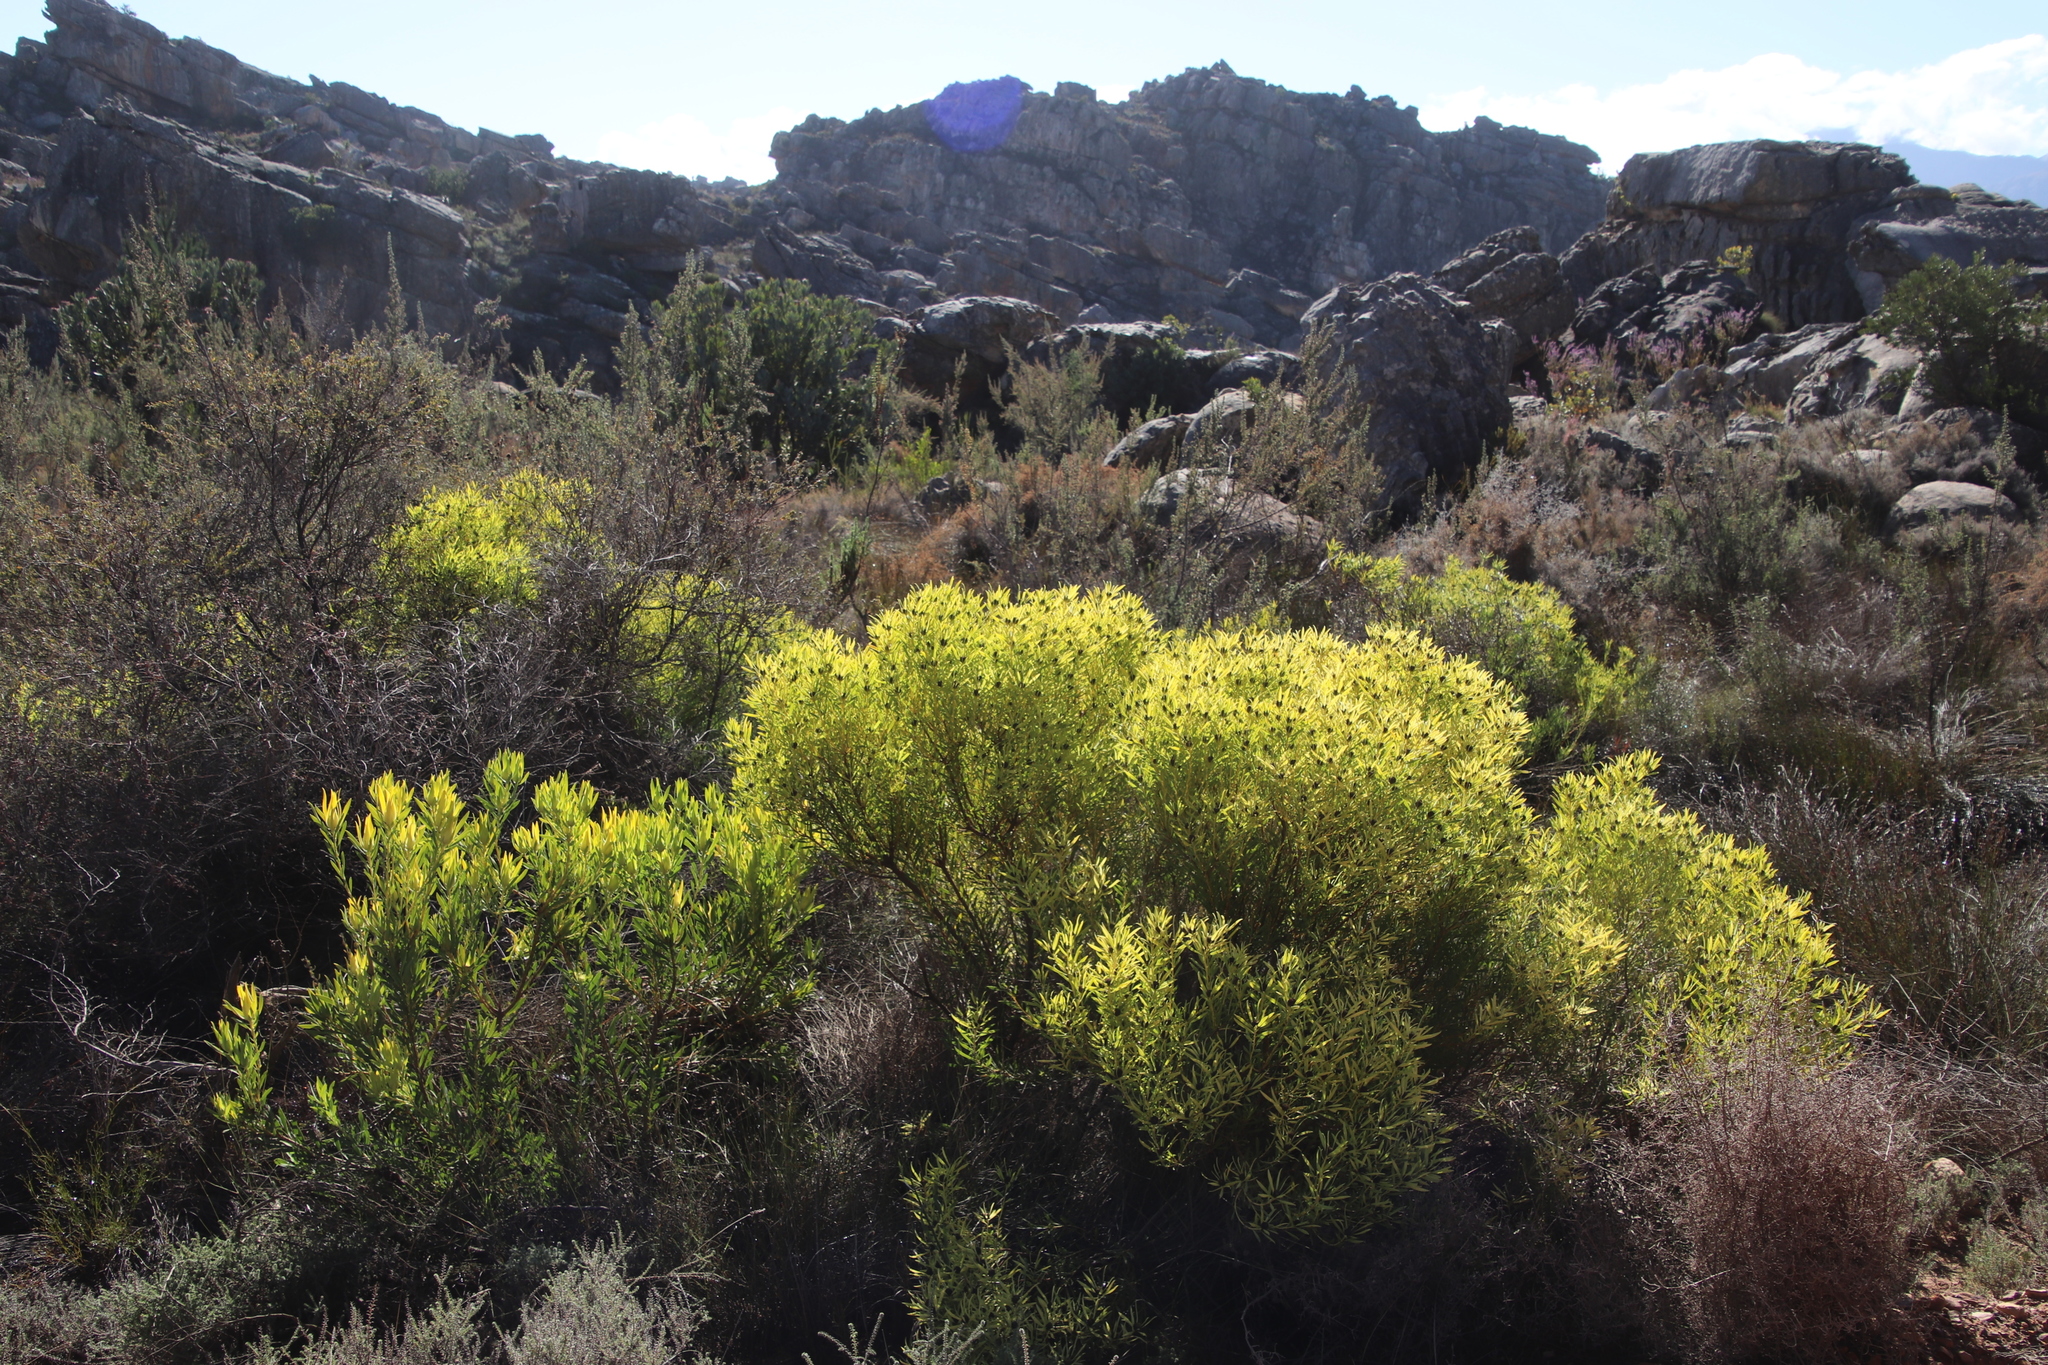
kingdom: Plantae
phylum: Tracheophyta
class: Magnoliopsida
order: Proteales
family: Proteaceae
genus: Leucadendron
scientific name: Leucadendron salignum
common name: Common sunshine conebush
